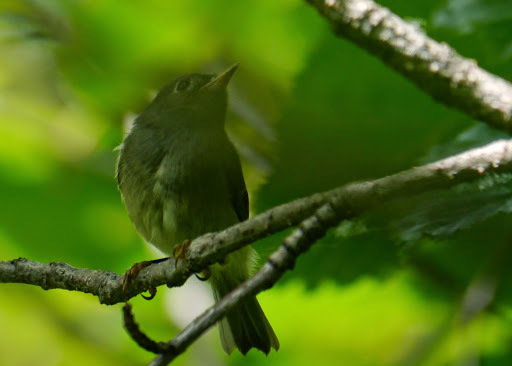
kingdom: Animalia
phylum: Chordata
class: Aves
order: Passeriformes
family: Regulidae
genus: Regulus
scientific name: Regulus calendula
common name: Ruby-crowned kinglet
